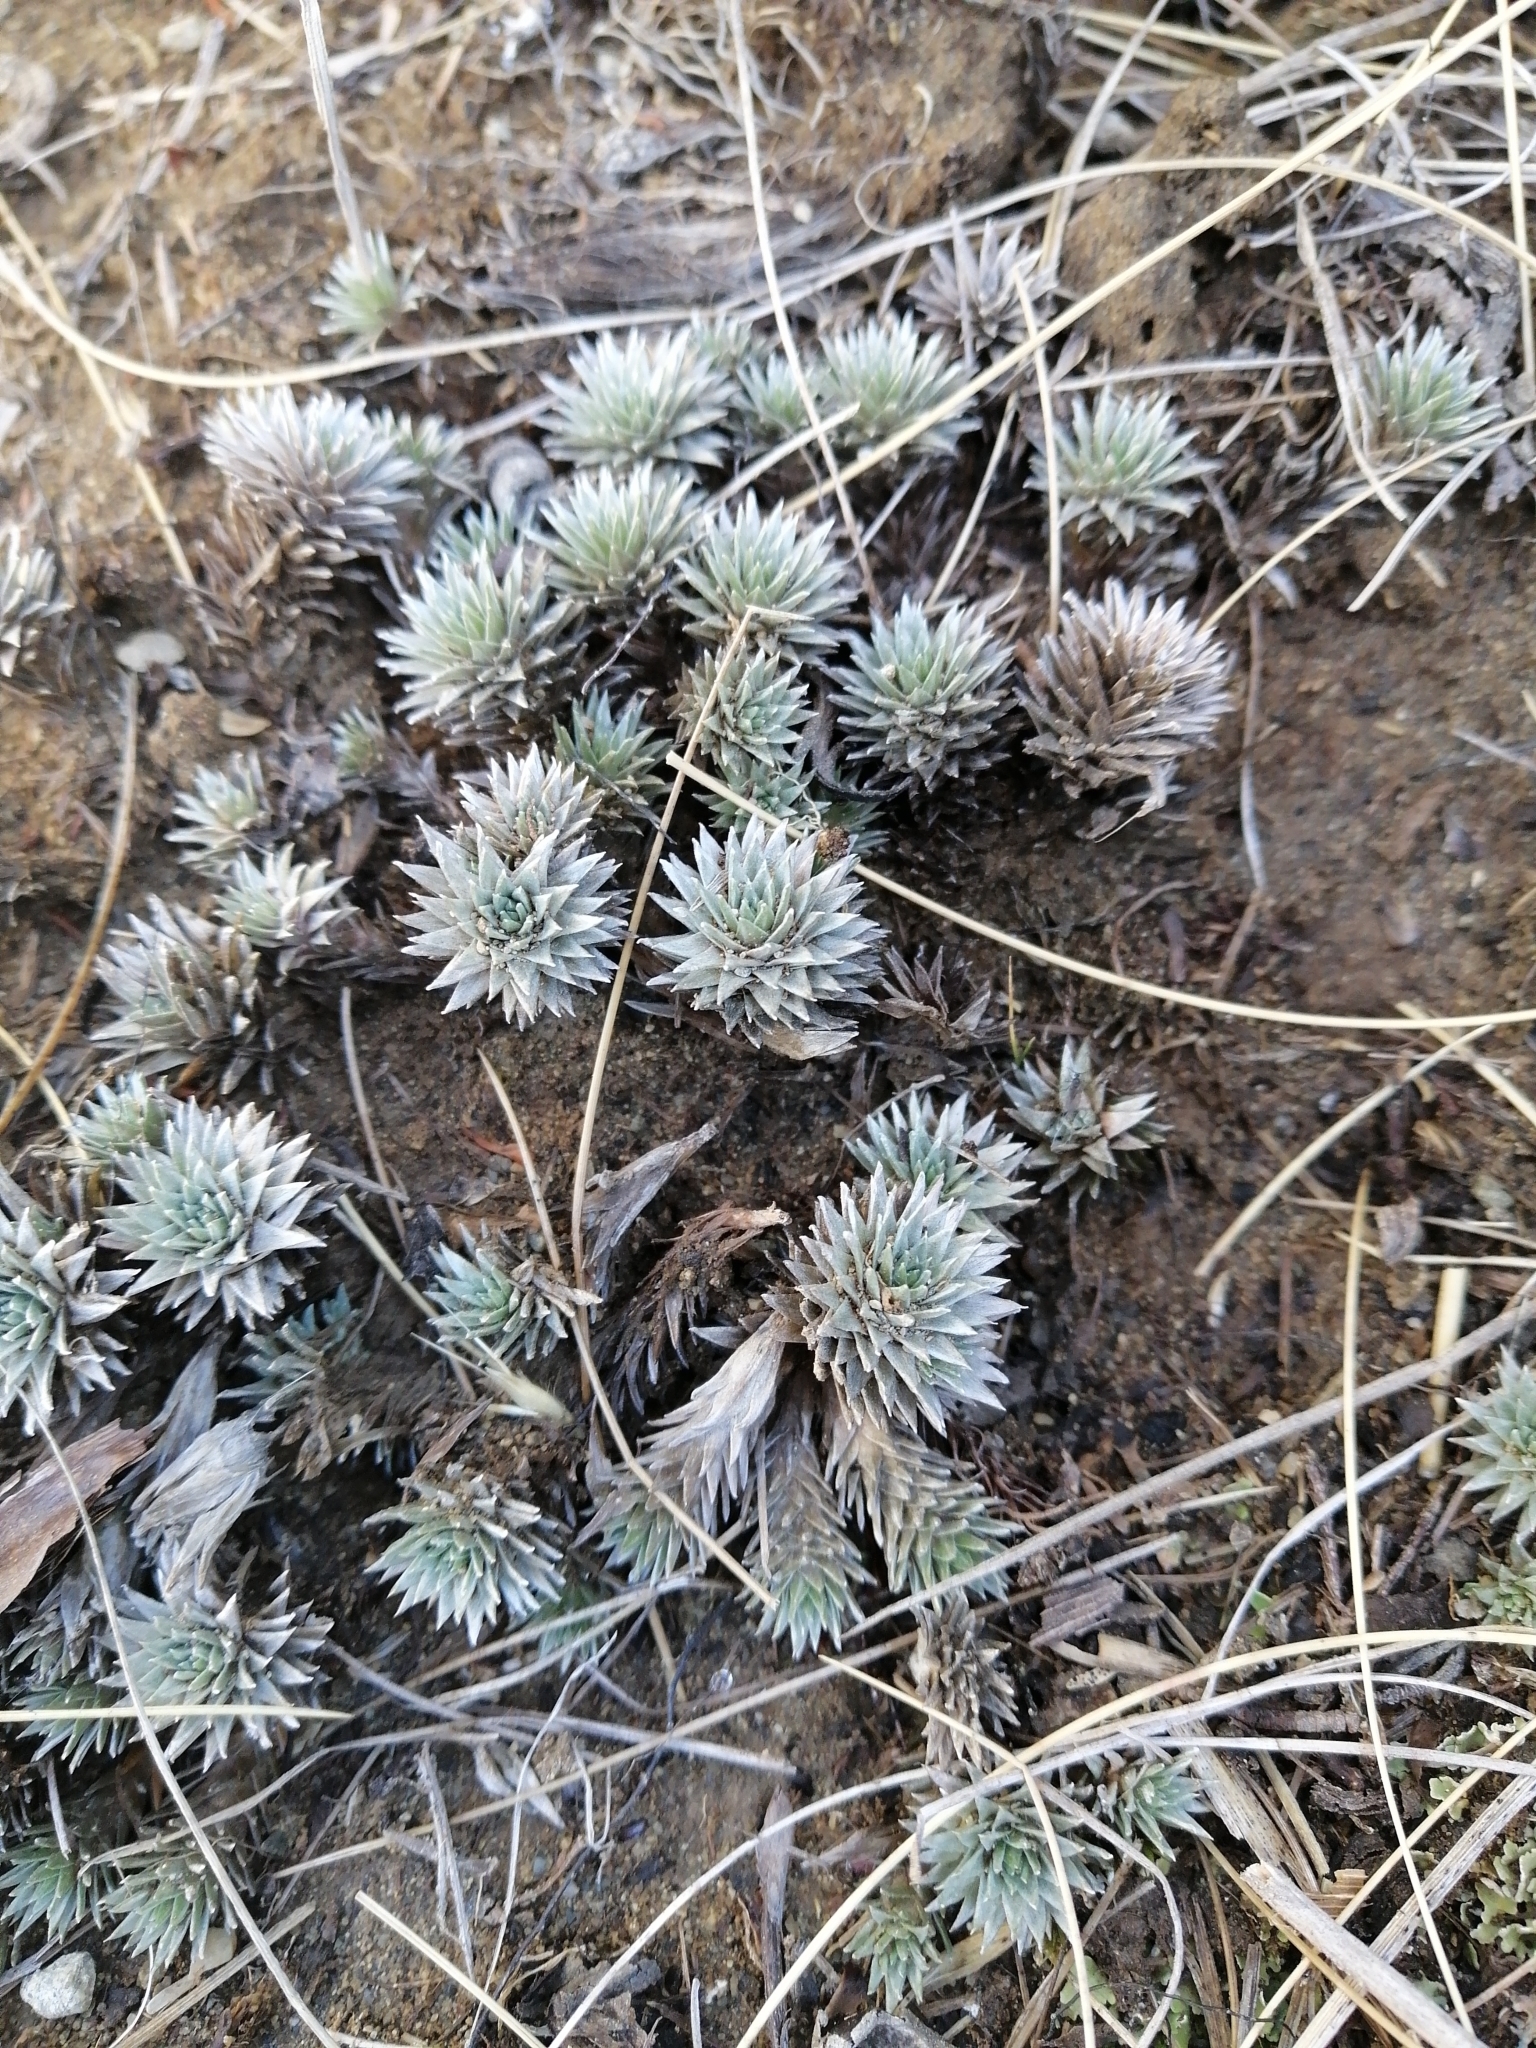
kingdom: Plantae
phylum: Tracheophyta
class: Magnoliopsida
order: Asterales
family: Asteraceae
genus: Raoulia
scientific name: Raoulia grandiflora
